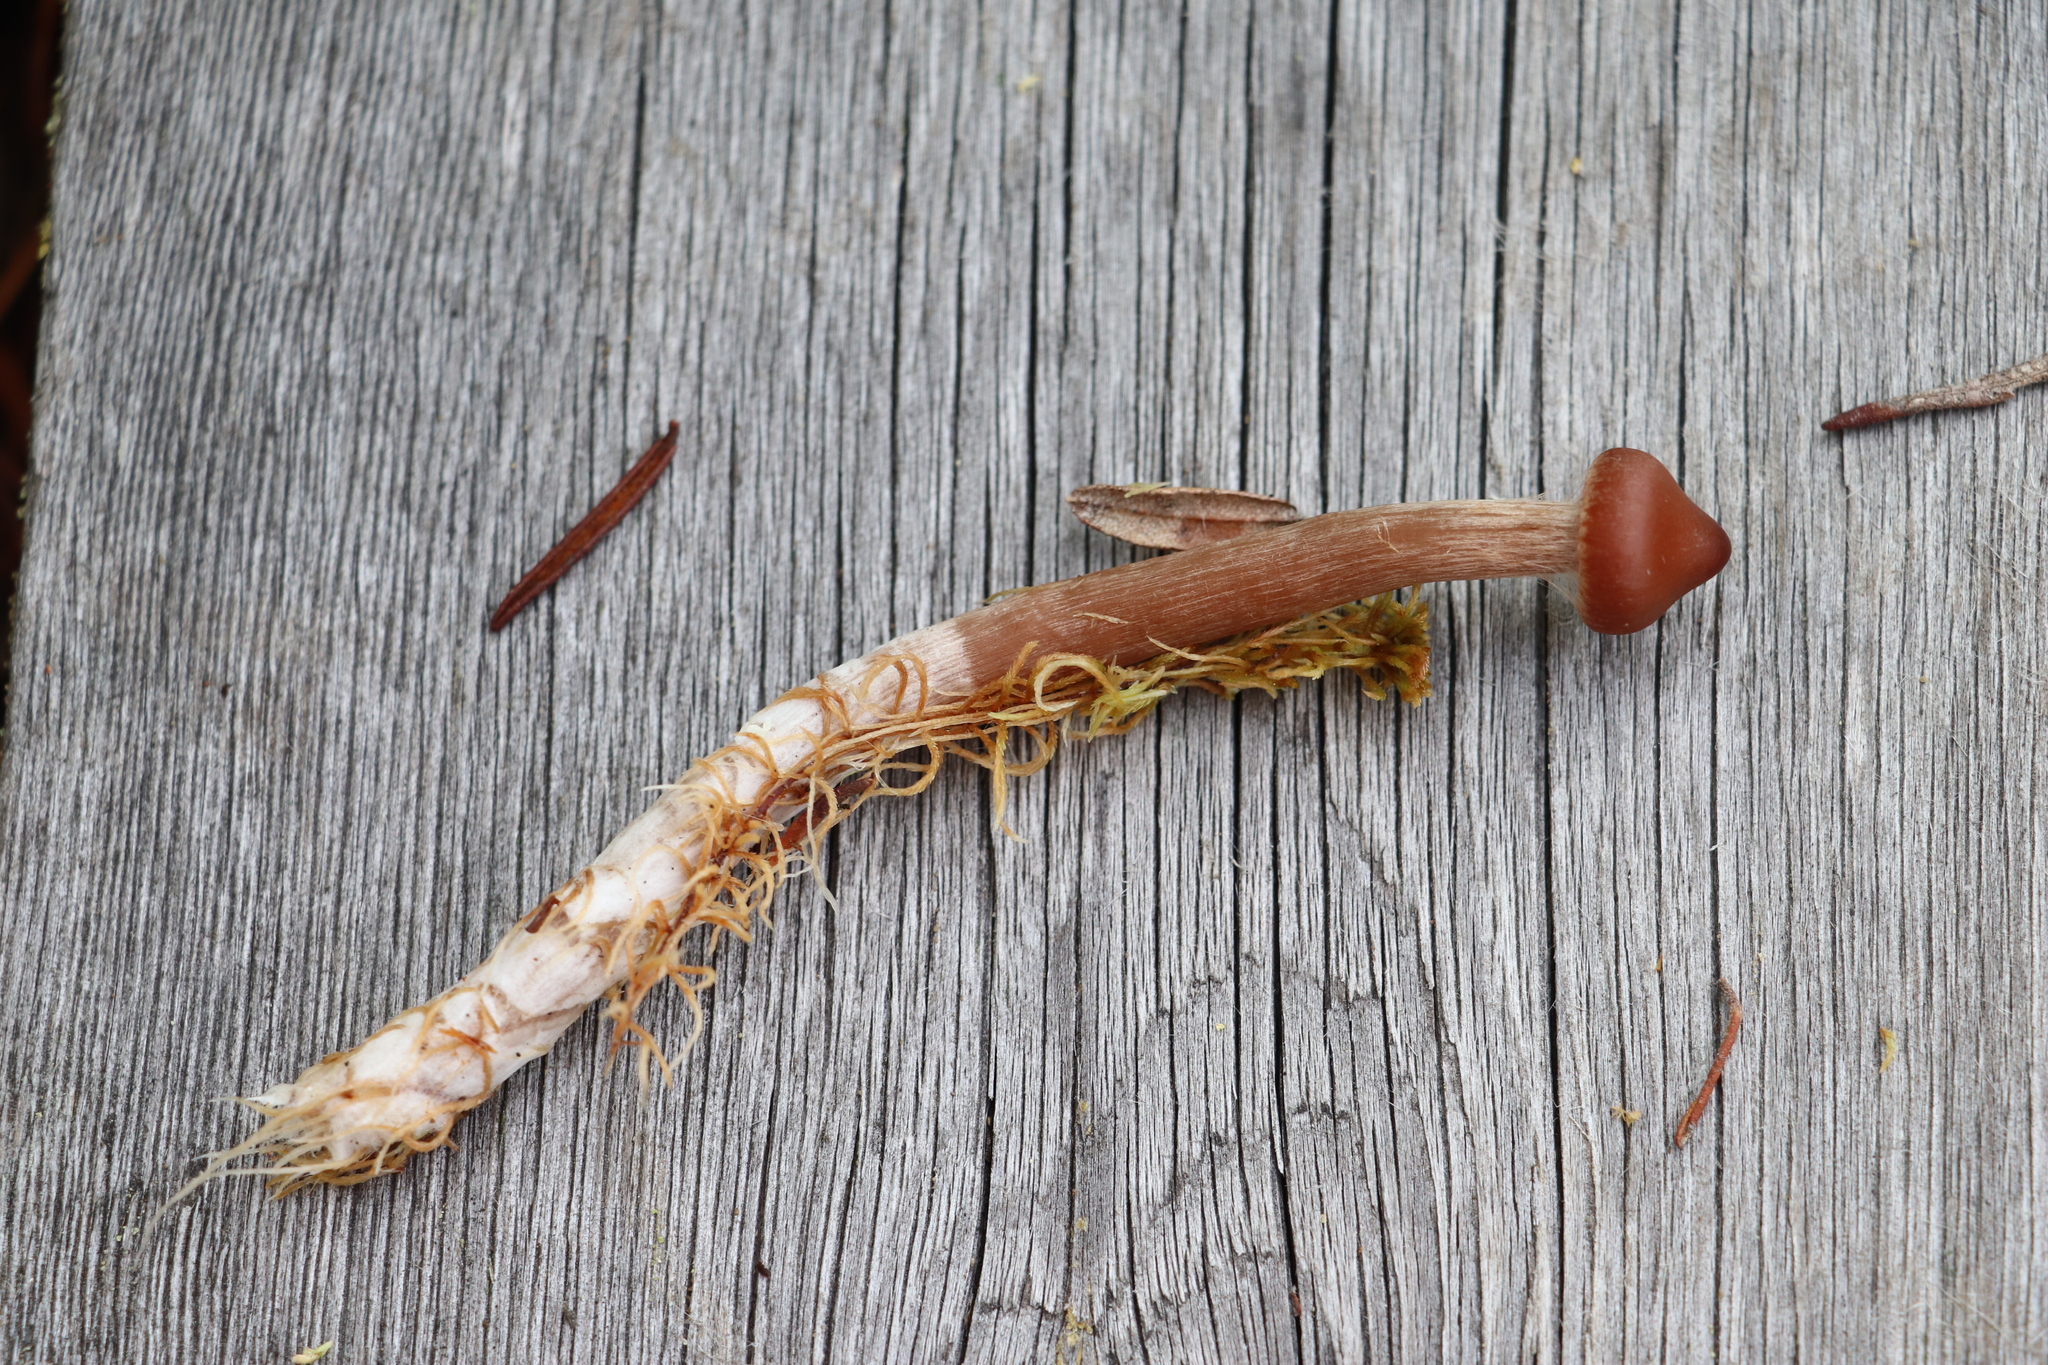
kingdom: Fungi
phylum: Basidiomycota
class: Agaricomycetes
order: Agaricales
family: Cortinariaceae
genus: Cortinarius
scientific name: Cortinarius glandicolor
